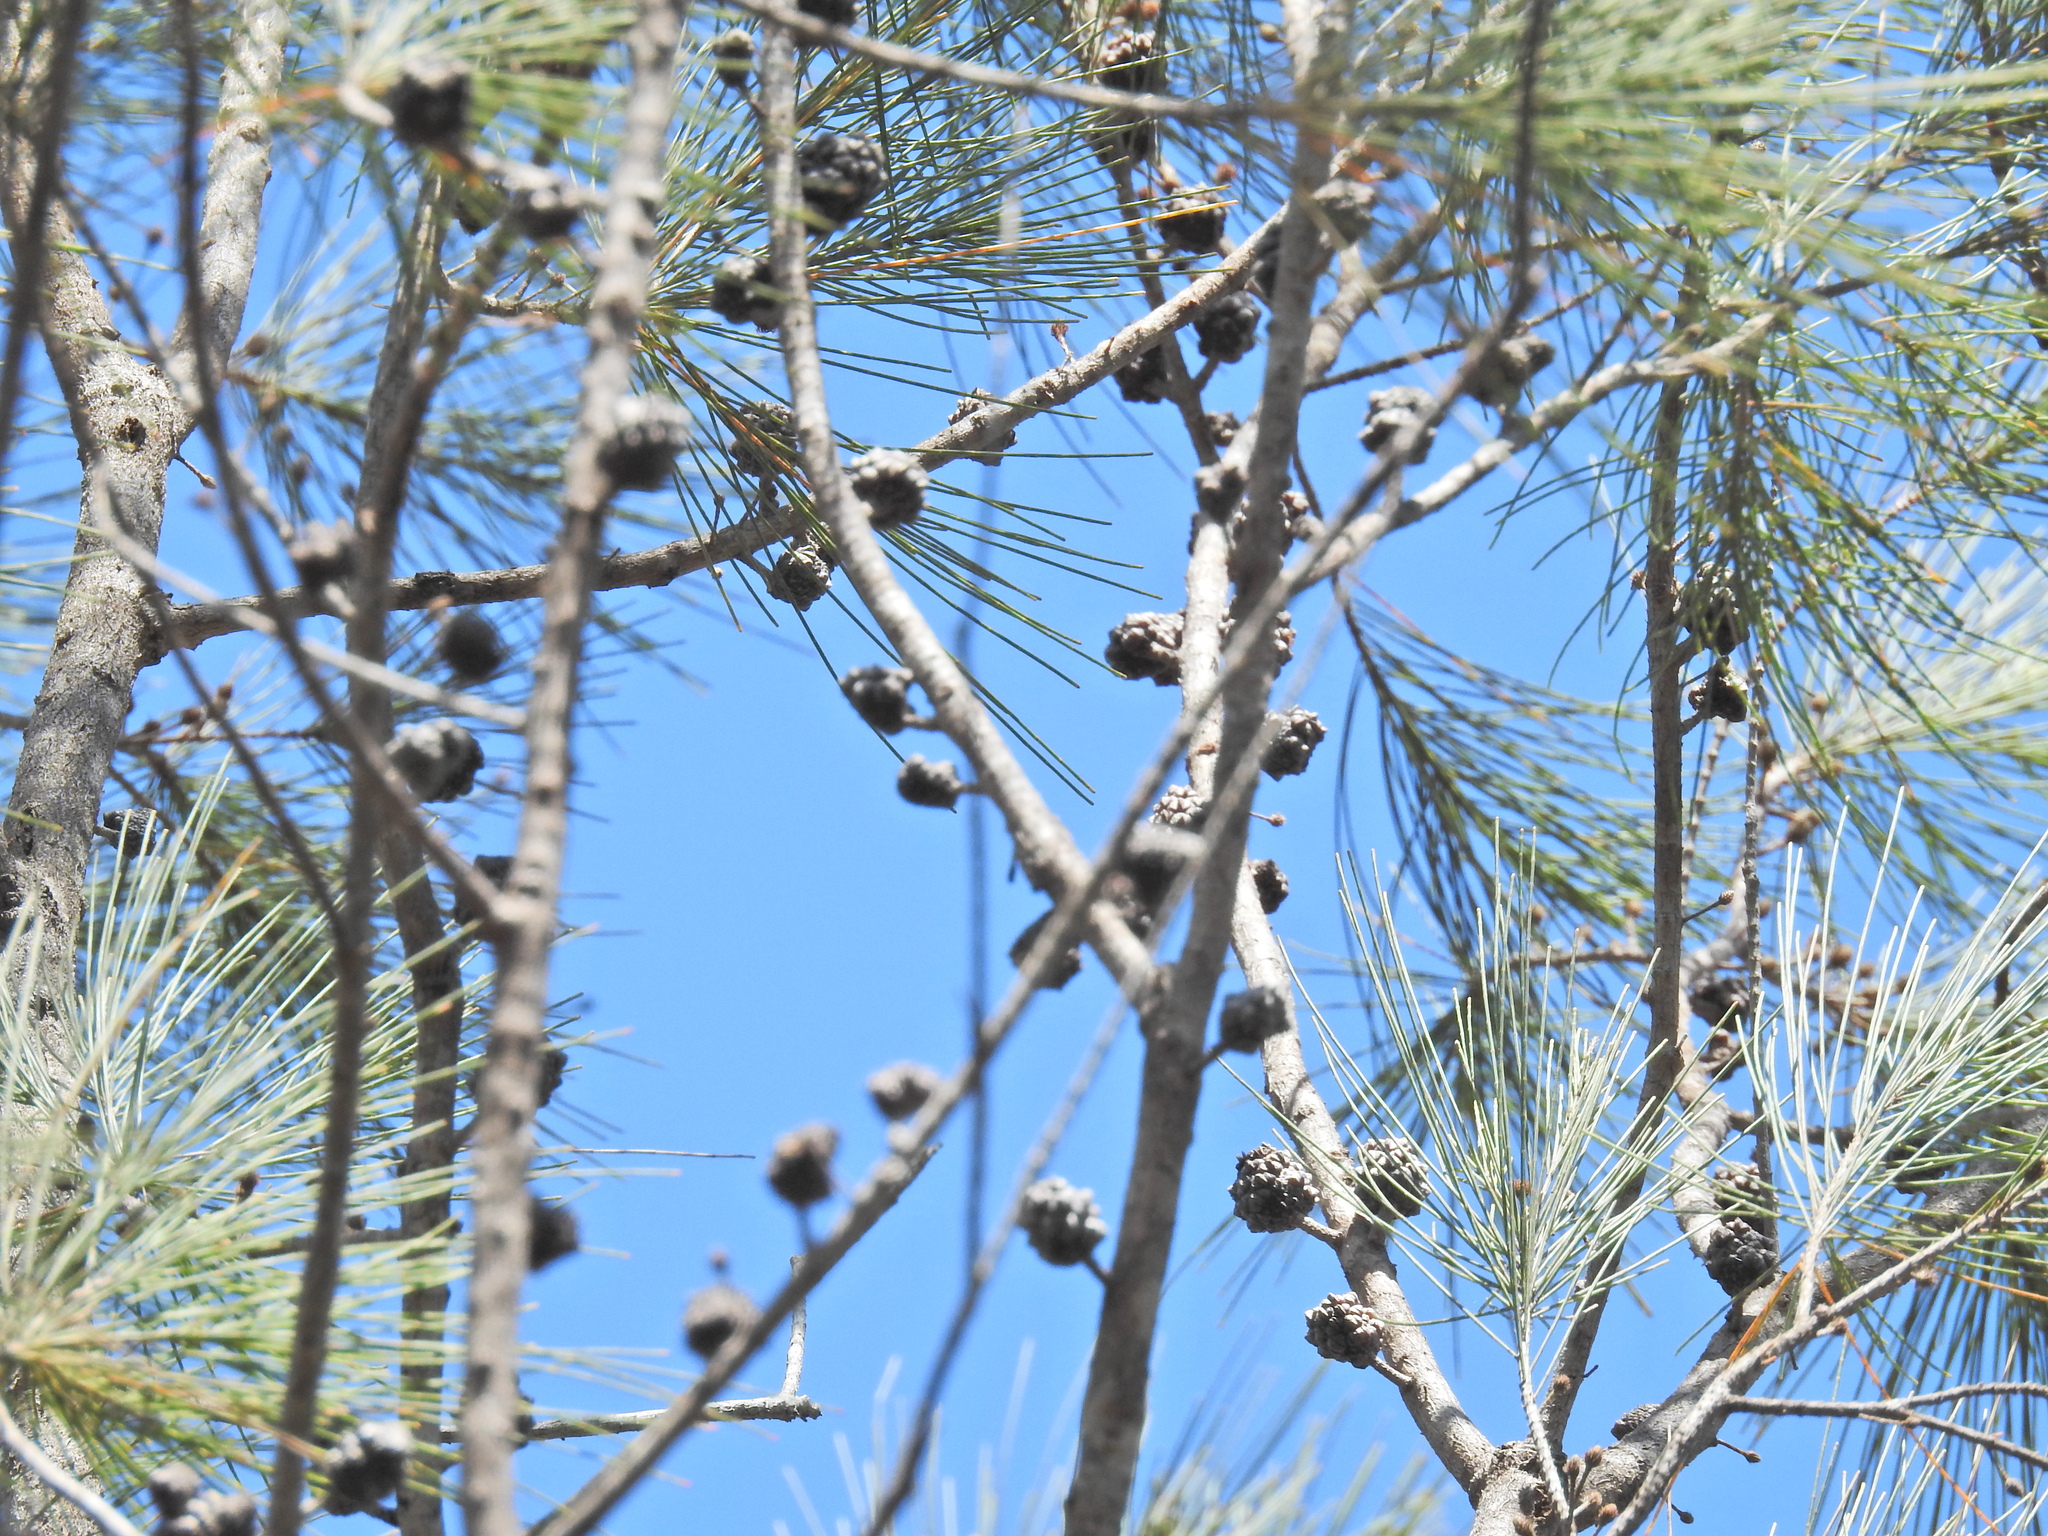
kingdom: Plantae
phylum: Tracheophyta
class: Magnoliopsida
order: Fagales
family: Casuarinaceae
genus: Allocasuarina
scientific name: Allocasuarina littoralis
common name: Black she-oak
